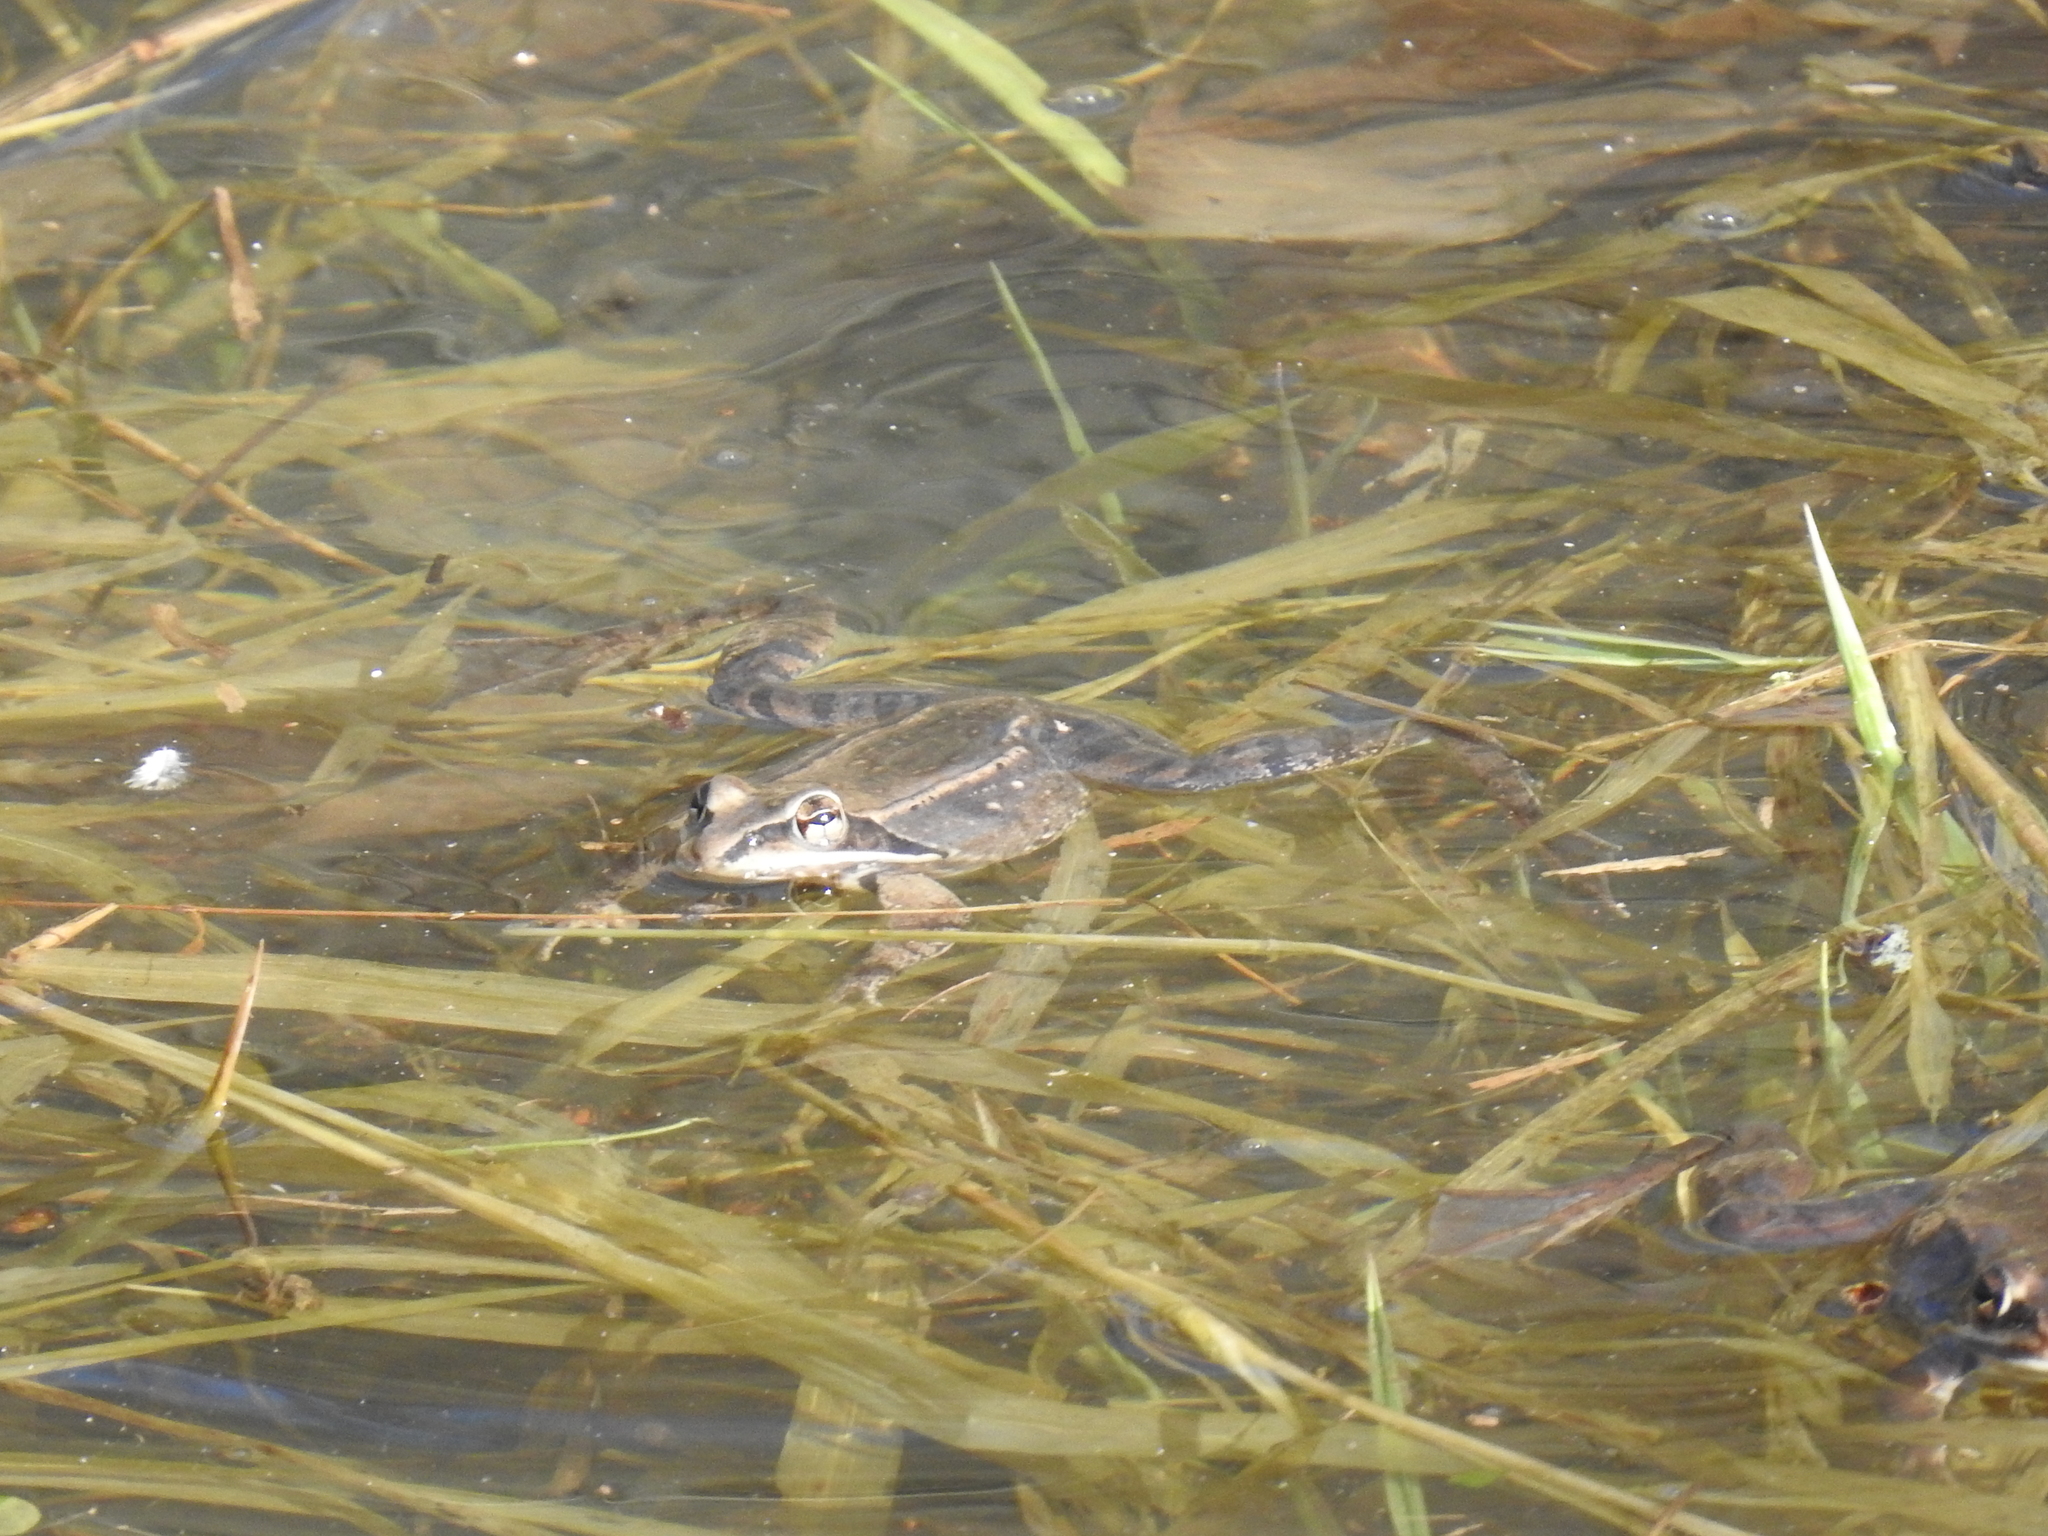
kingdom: Animalia
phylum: Chordata
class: Amphibia
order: Anura
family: Ranidae
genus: Lithobates
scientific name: Lithobates sylvaticus
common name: Wood frog
